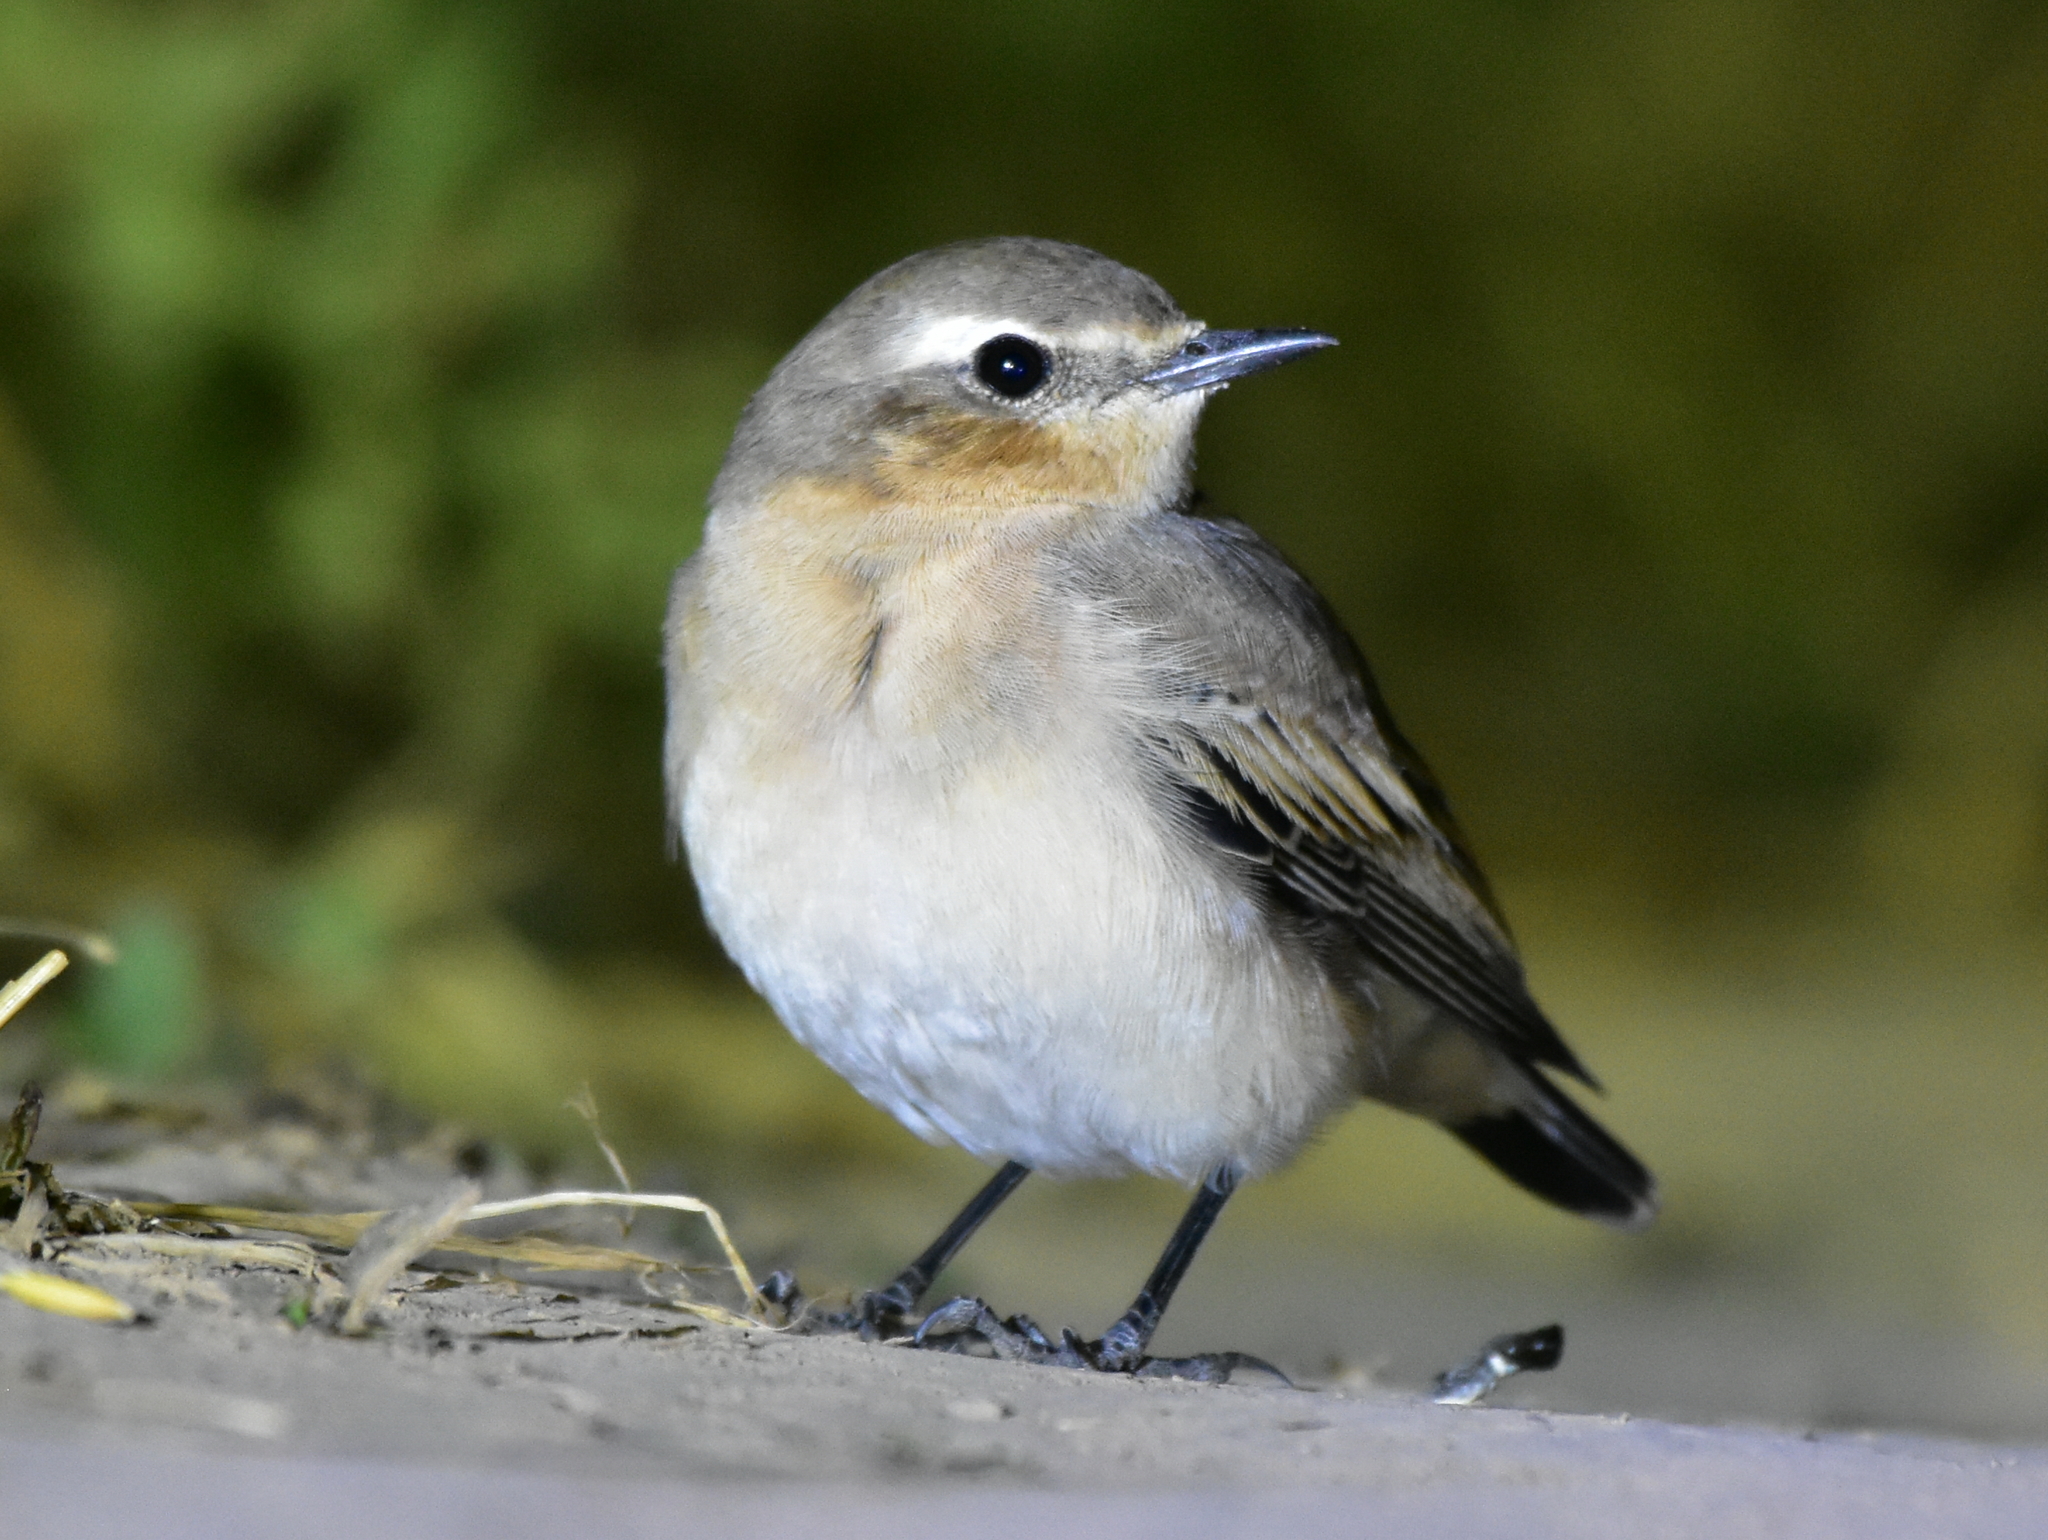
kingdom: Animalia
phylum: Chordata
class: Aves
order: Passeriformes
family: Muscicapidae
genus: Oenanthe
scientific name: Oenanthe oenanthe
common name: Northern wheatear
